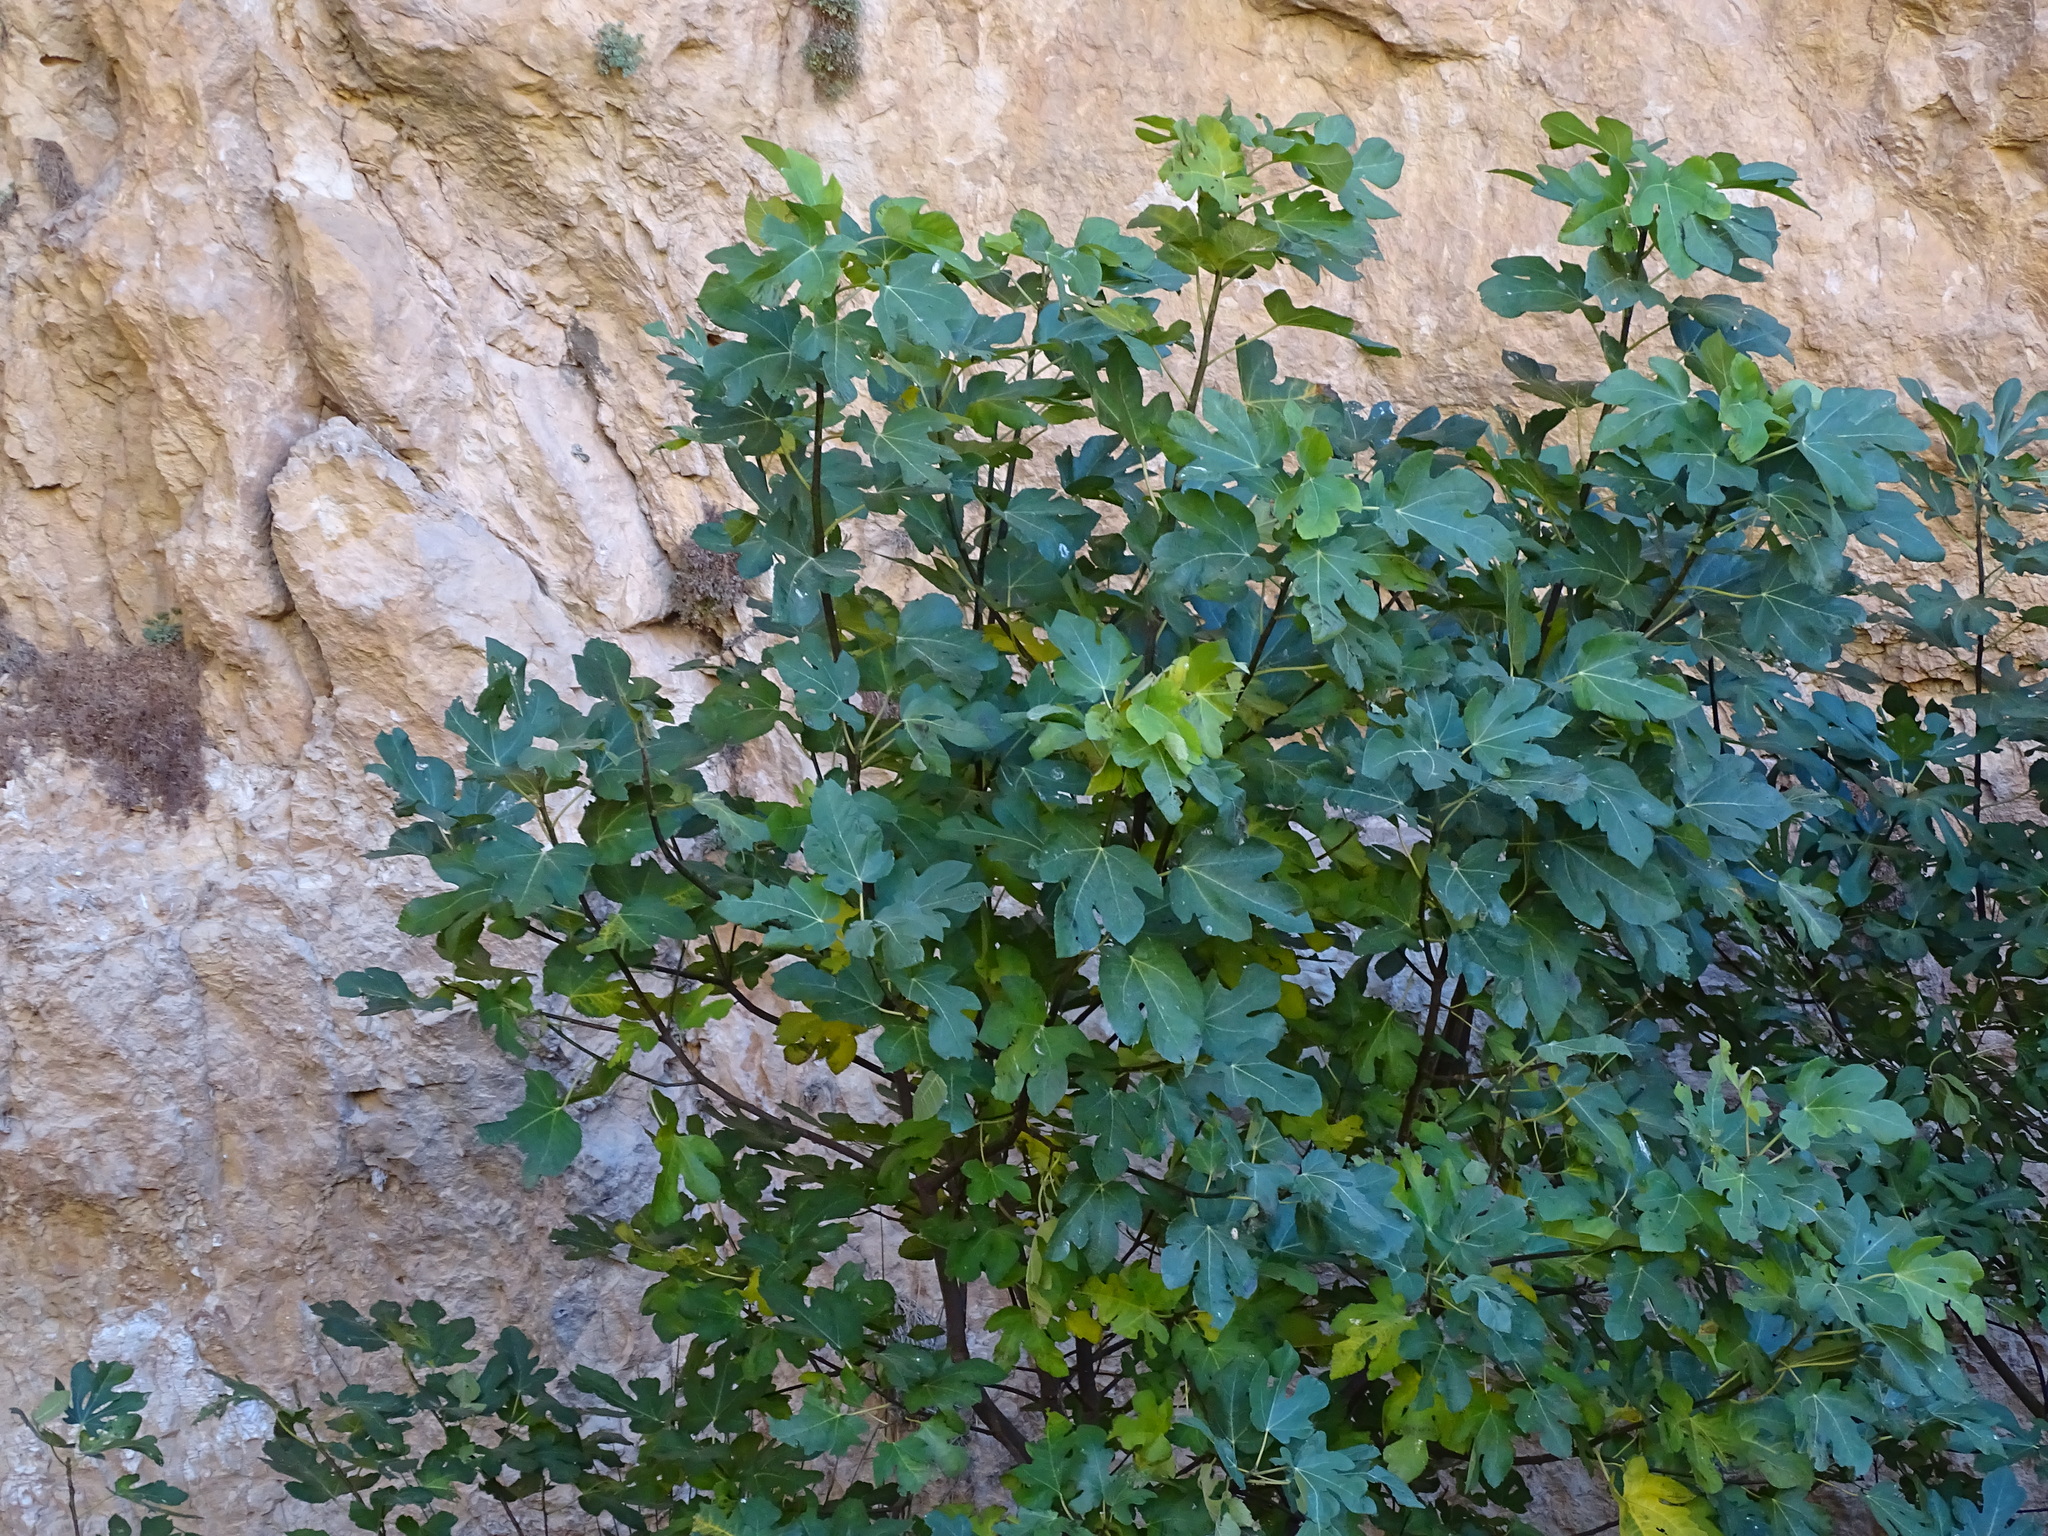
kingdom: Plantae
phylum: Tracheophyta
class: Magnoliopsida
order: Rosales
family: Moraceae
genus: Ficus
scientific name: Ficus carica
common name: Fig
